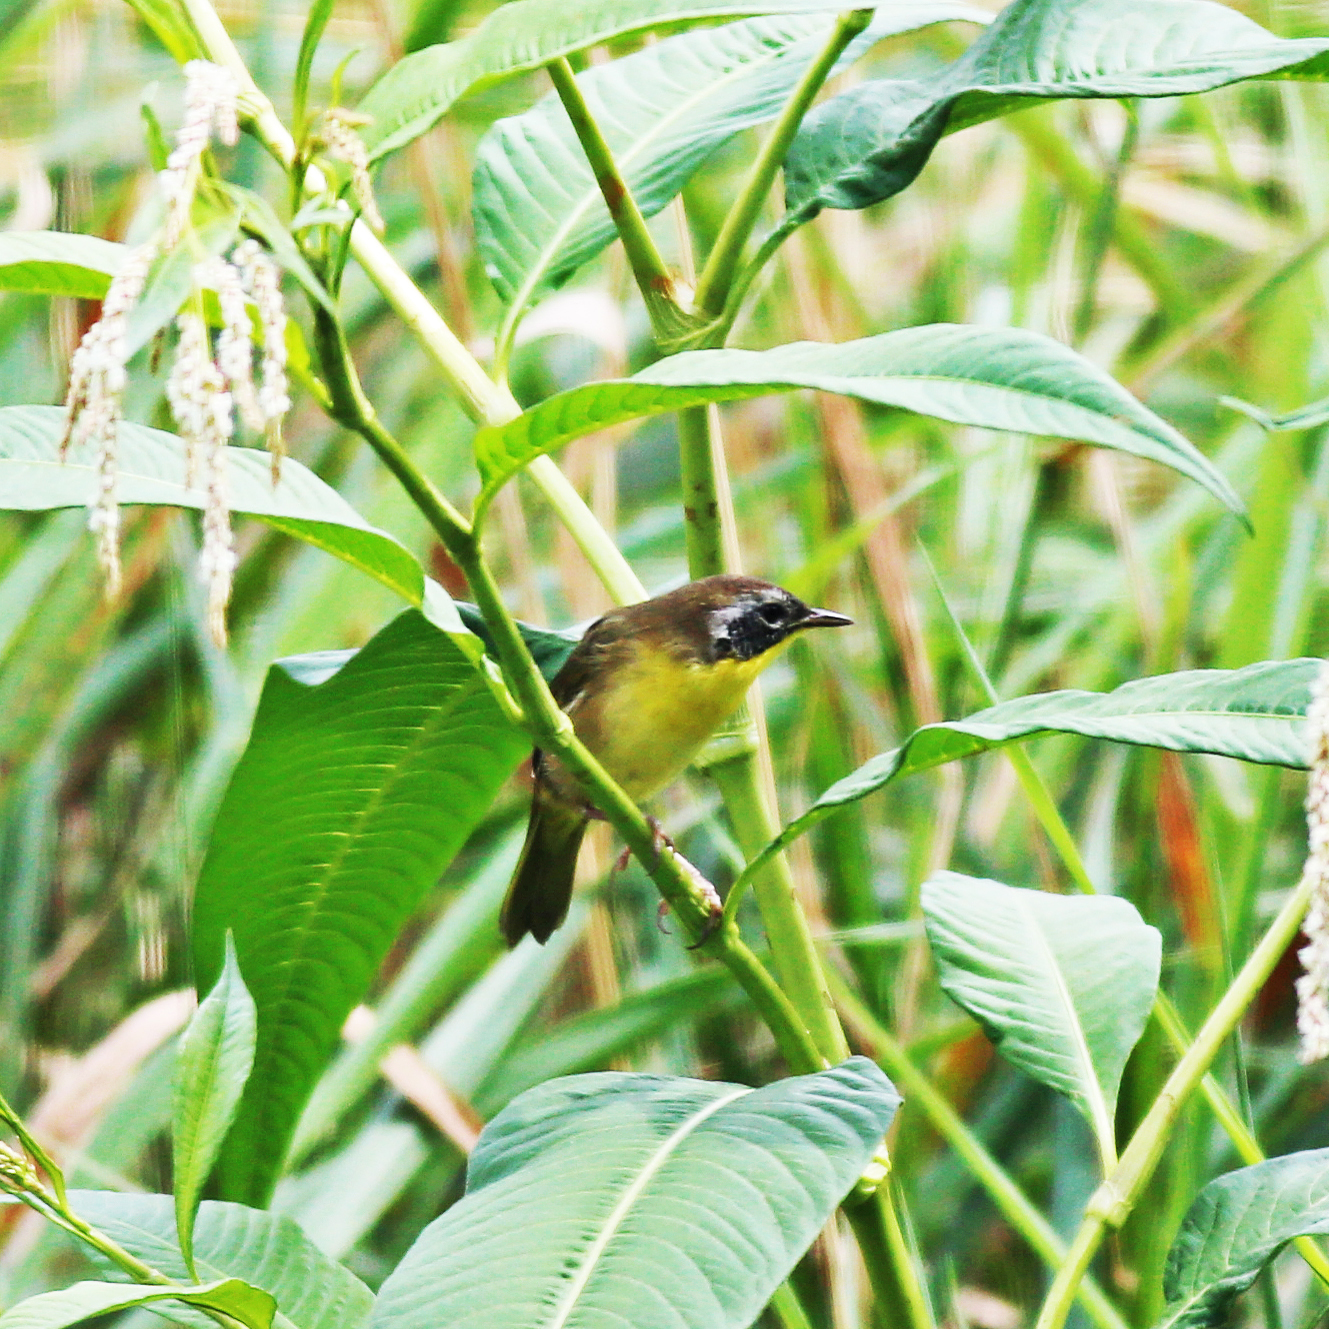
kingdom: Animalia
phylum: Chordata
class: Aves
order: Passeriformes
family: Parulidae
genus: Geothlypis
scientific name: Geothlypis trichas
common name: Common yellowthroat
